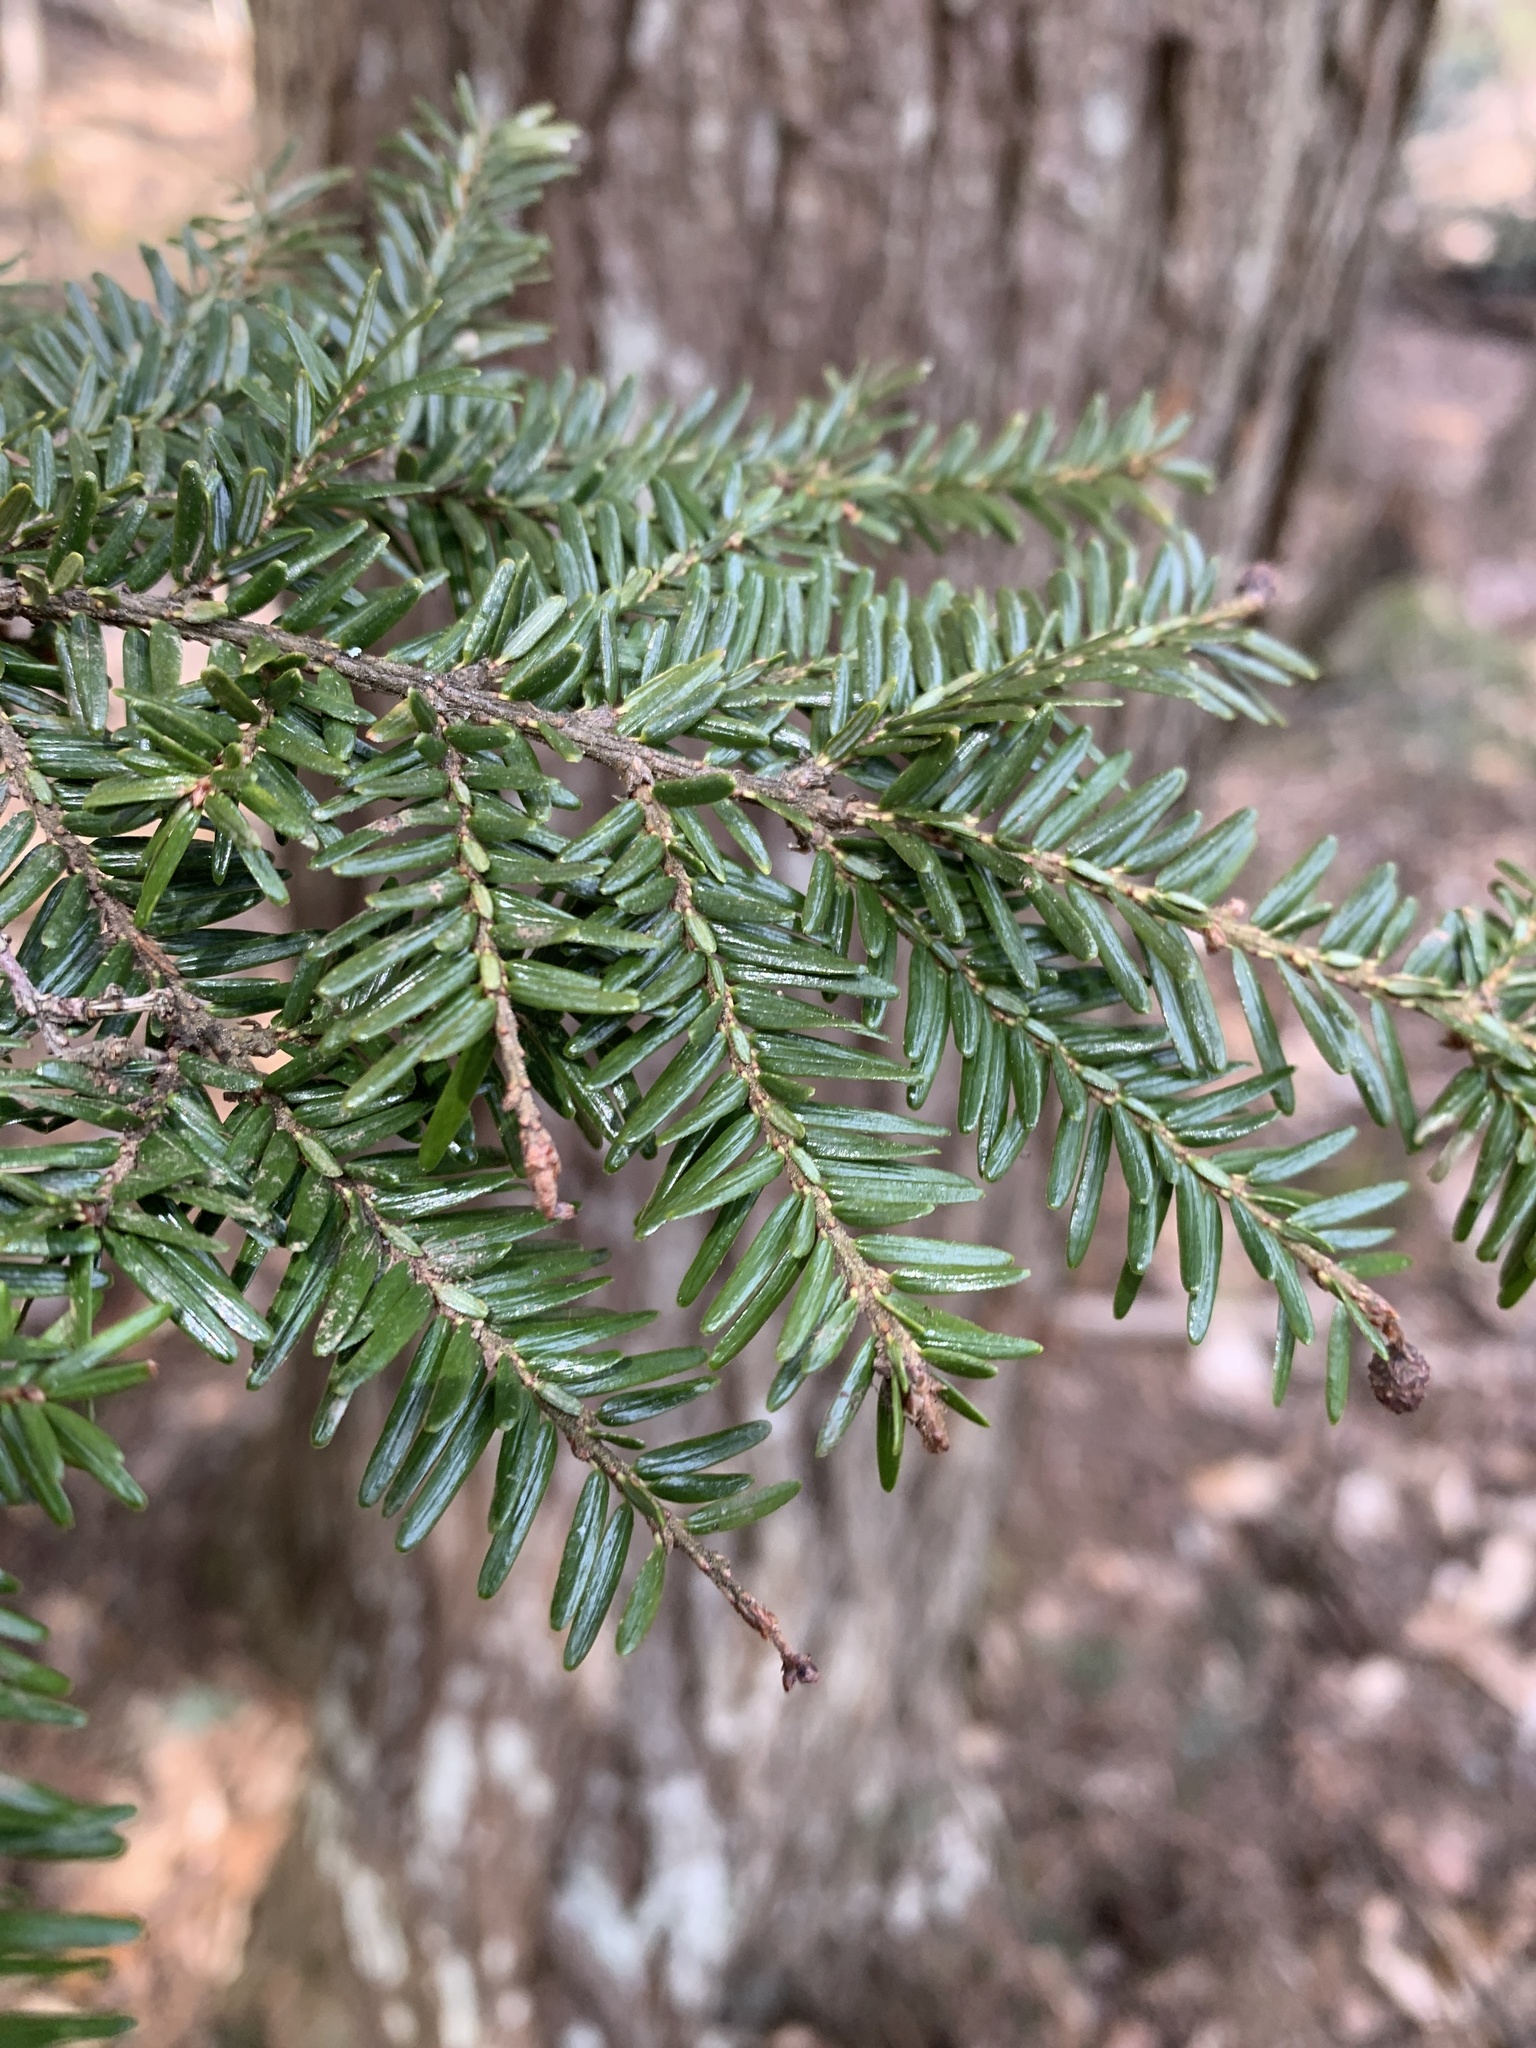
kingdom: Plantae
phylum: Tracheophyta
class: Pinopsida
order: Pinales
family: Pinaceae
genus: Tsuga
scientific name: Tsuga canadensis
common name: Eastern hemlock
